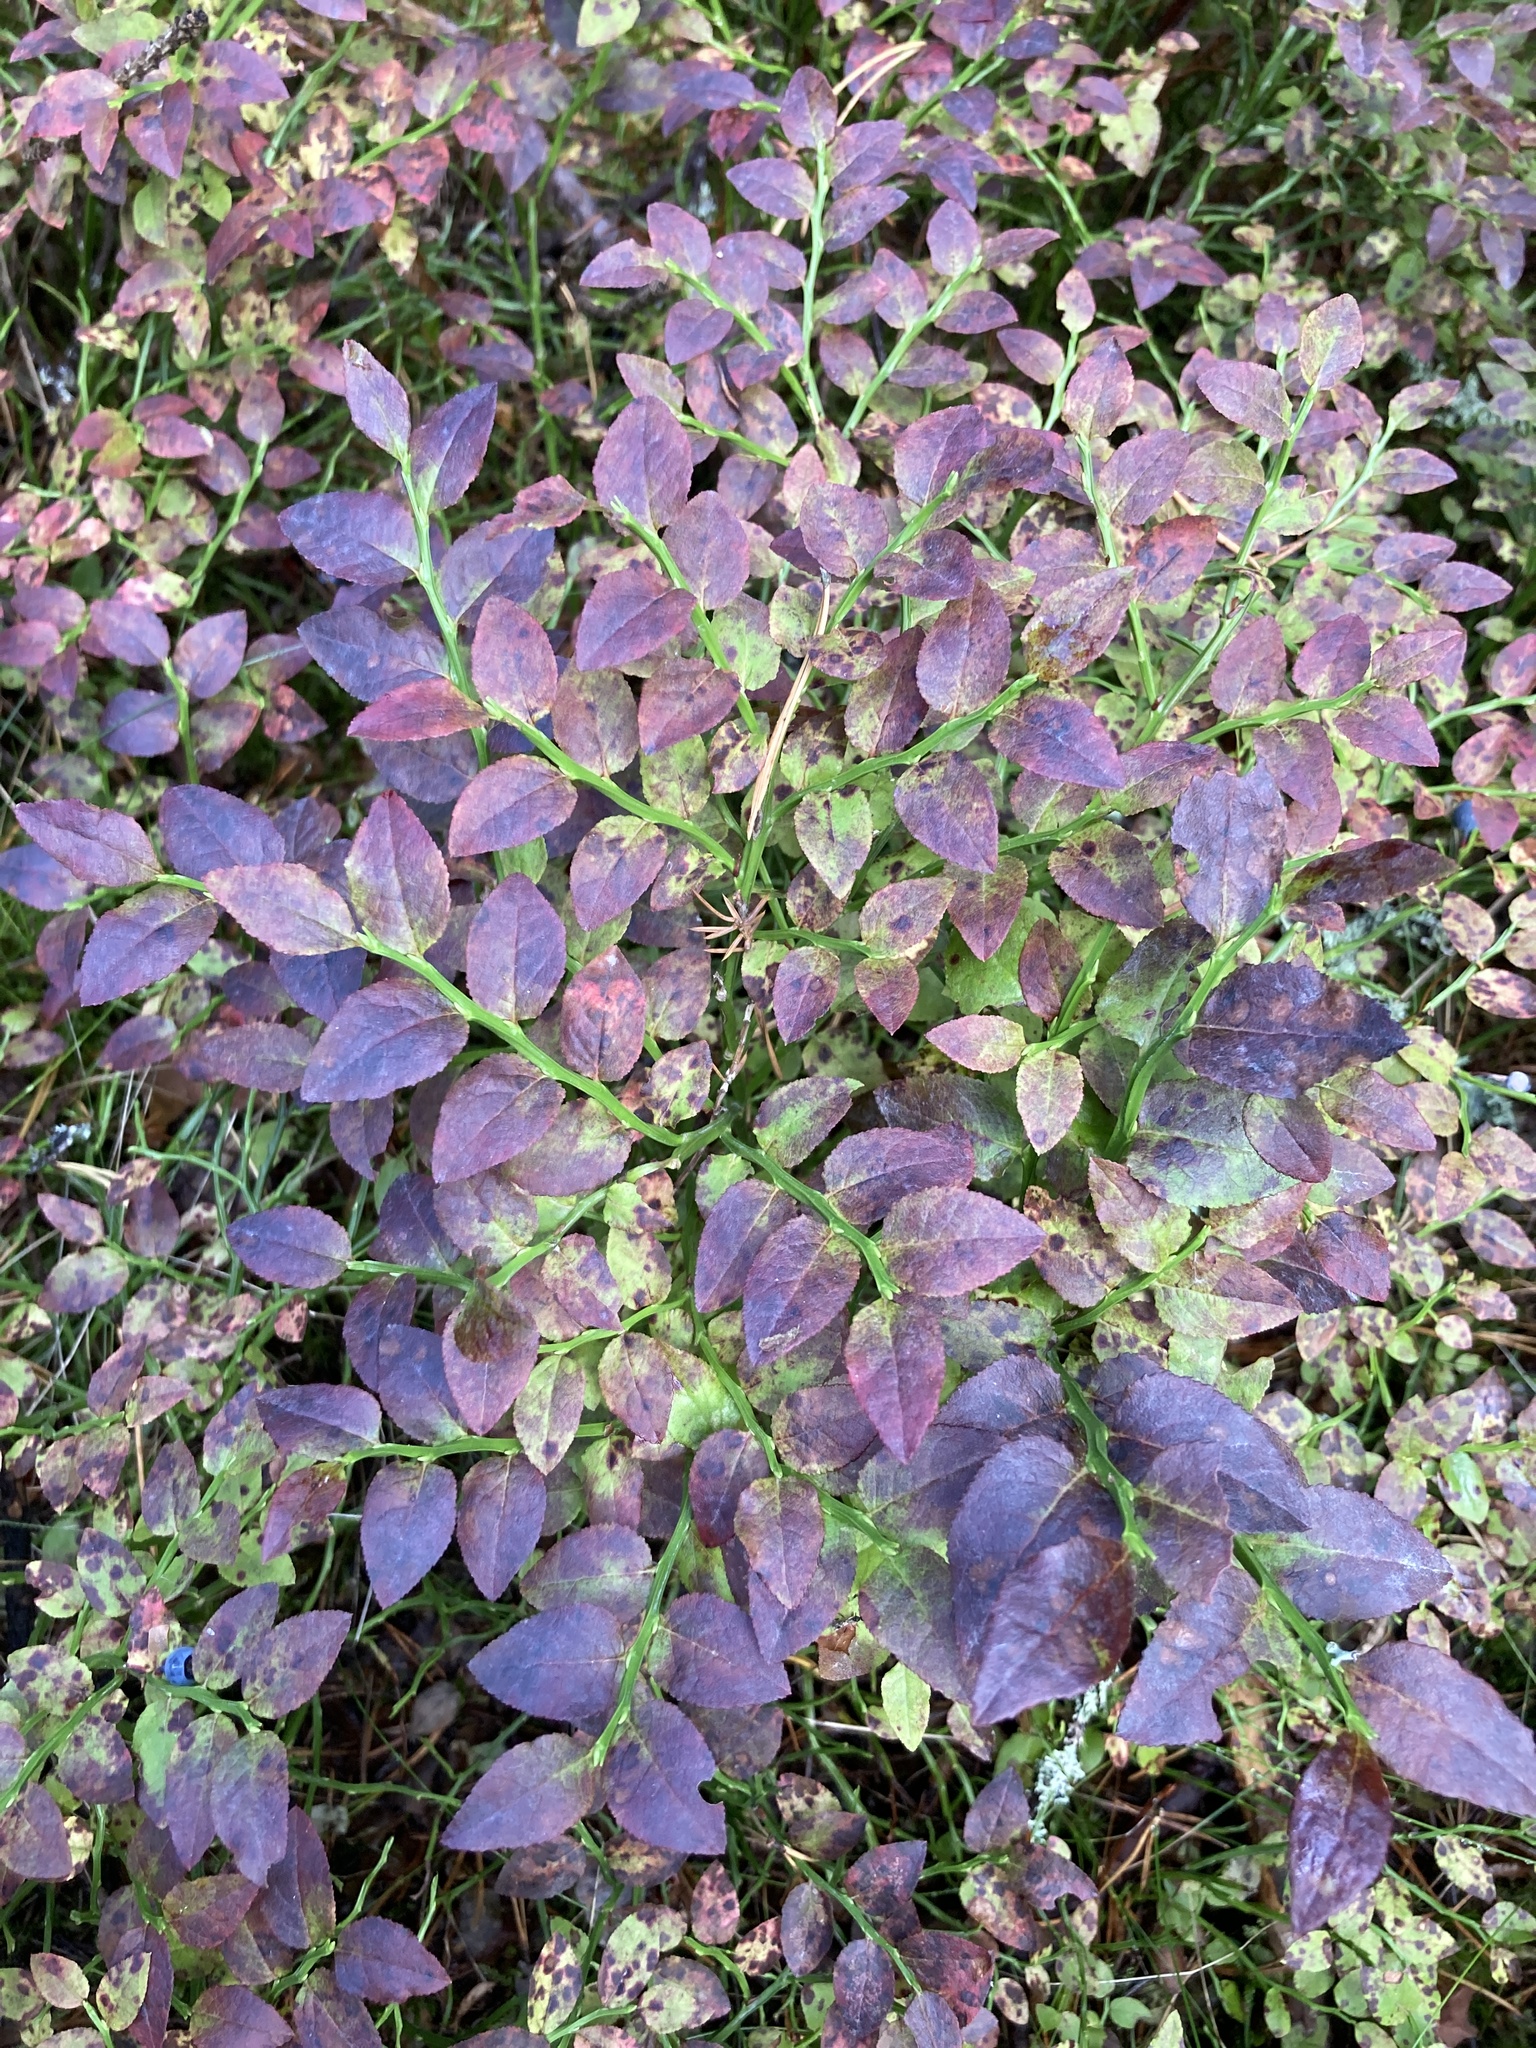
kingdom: Plantae
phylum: Tracheophyta
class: Magnoliopsida
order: Ericales
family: Ericaceae
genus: Vaccinium
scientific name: Vaccinium myrtillus
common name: Bilberry
